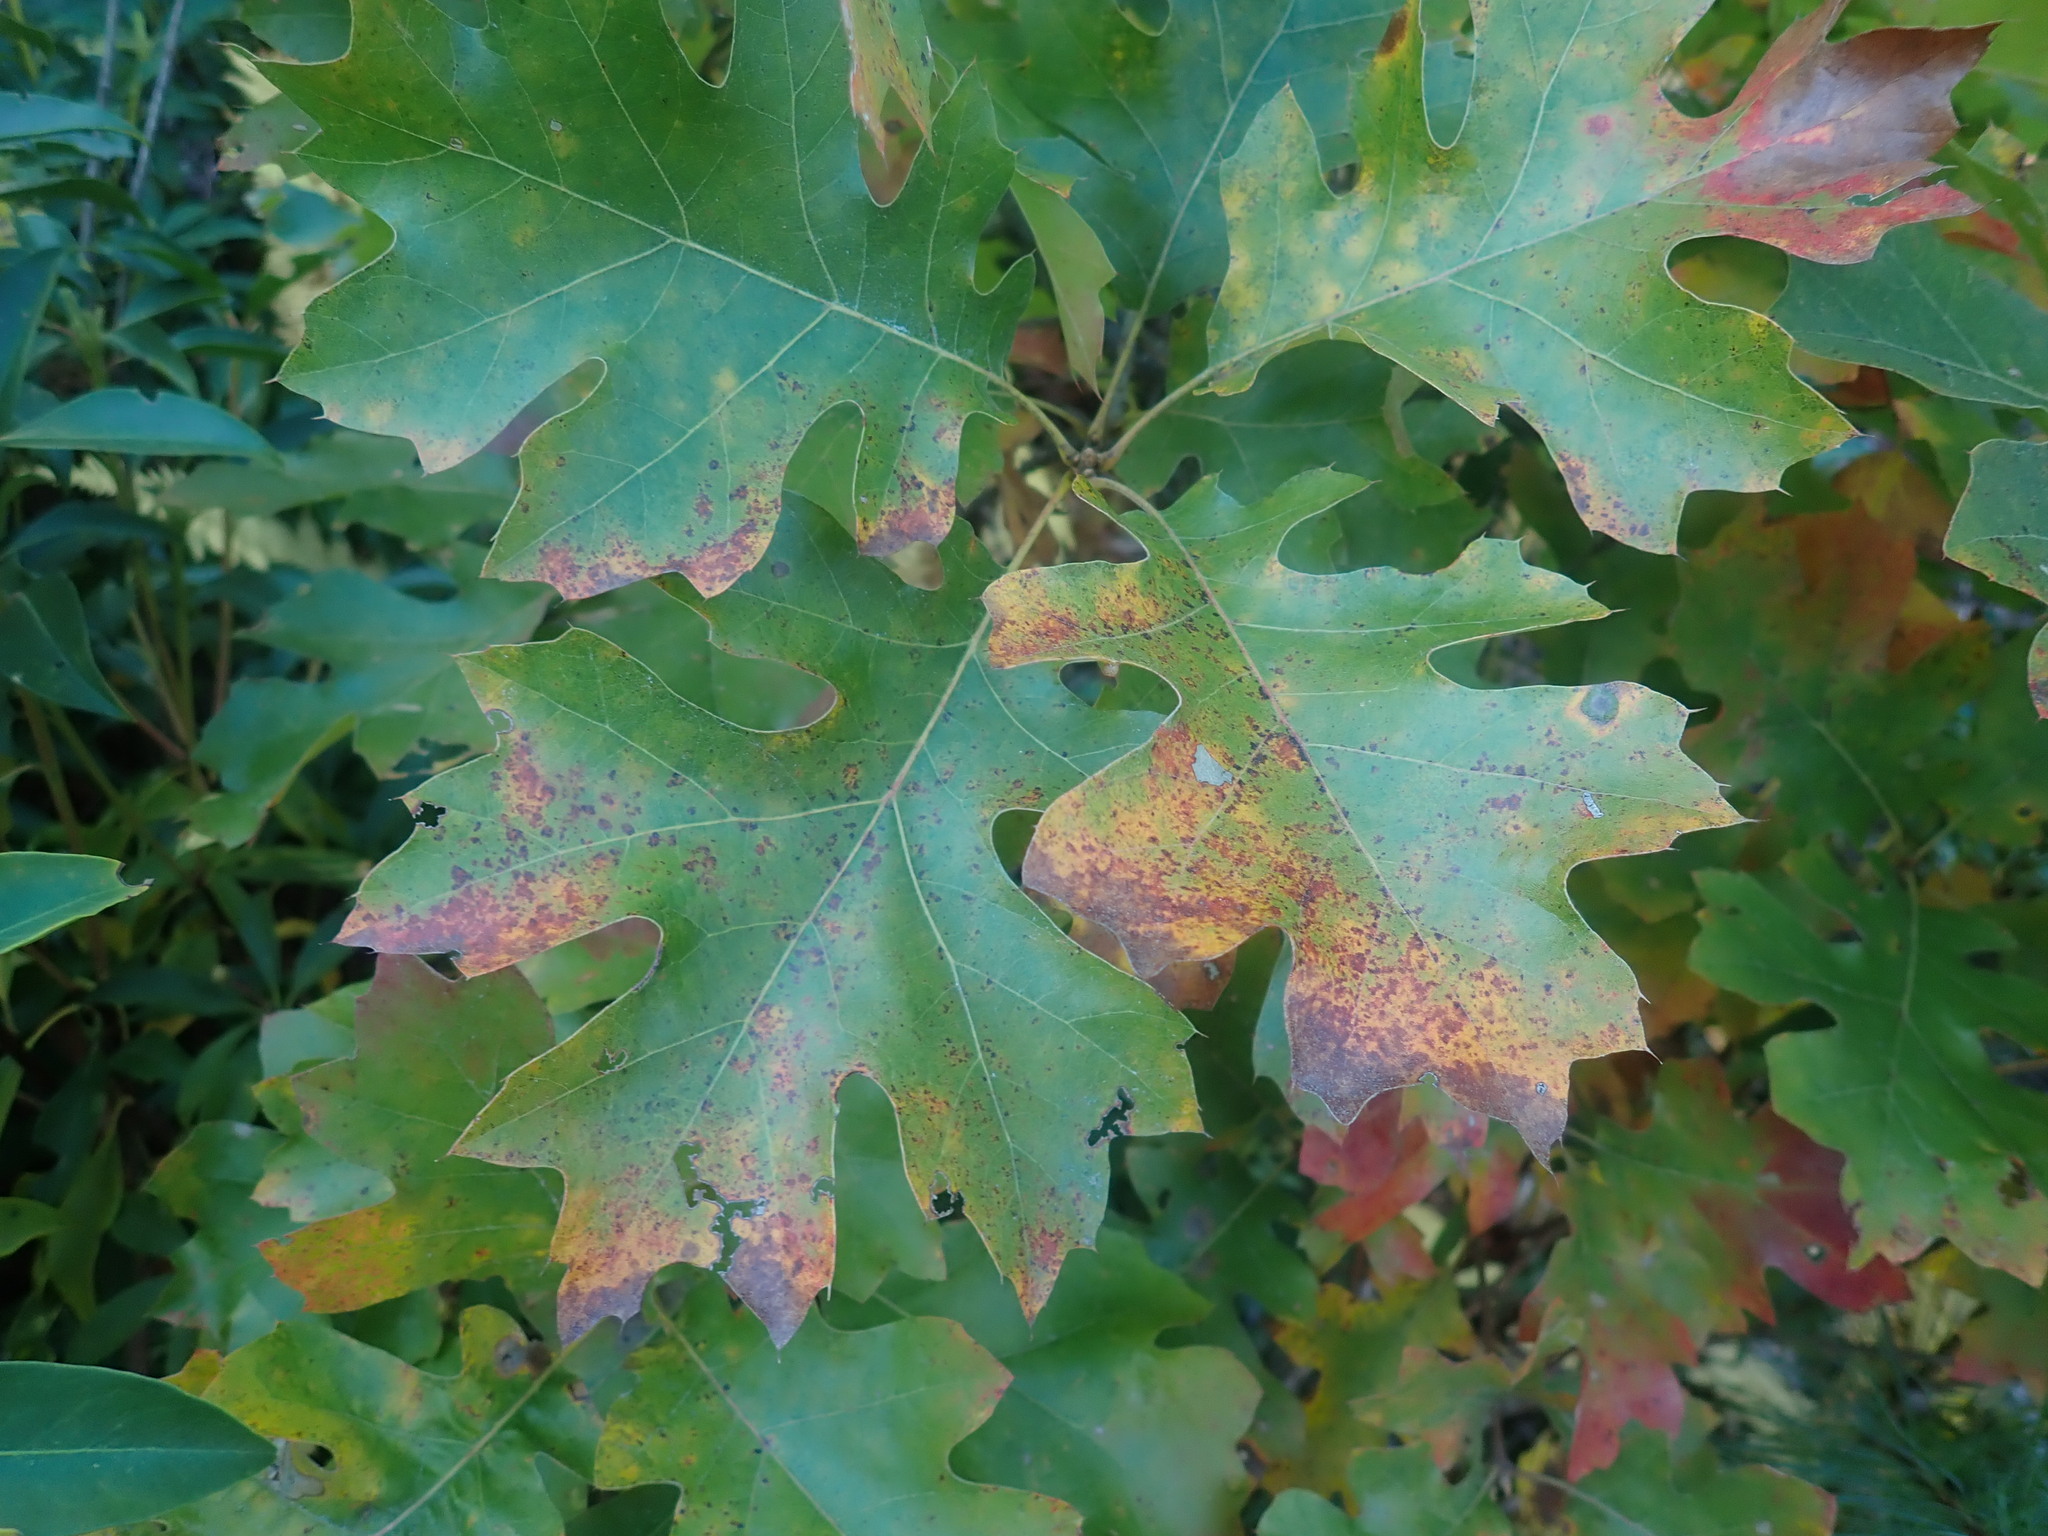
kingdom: Plantae
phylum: Tracheophyta
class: Magnoliopsida
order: Fagales
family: Fagaceae
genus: Quercus
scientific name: Quercus velutina
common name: Black oak
